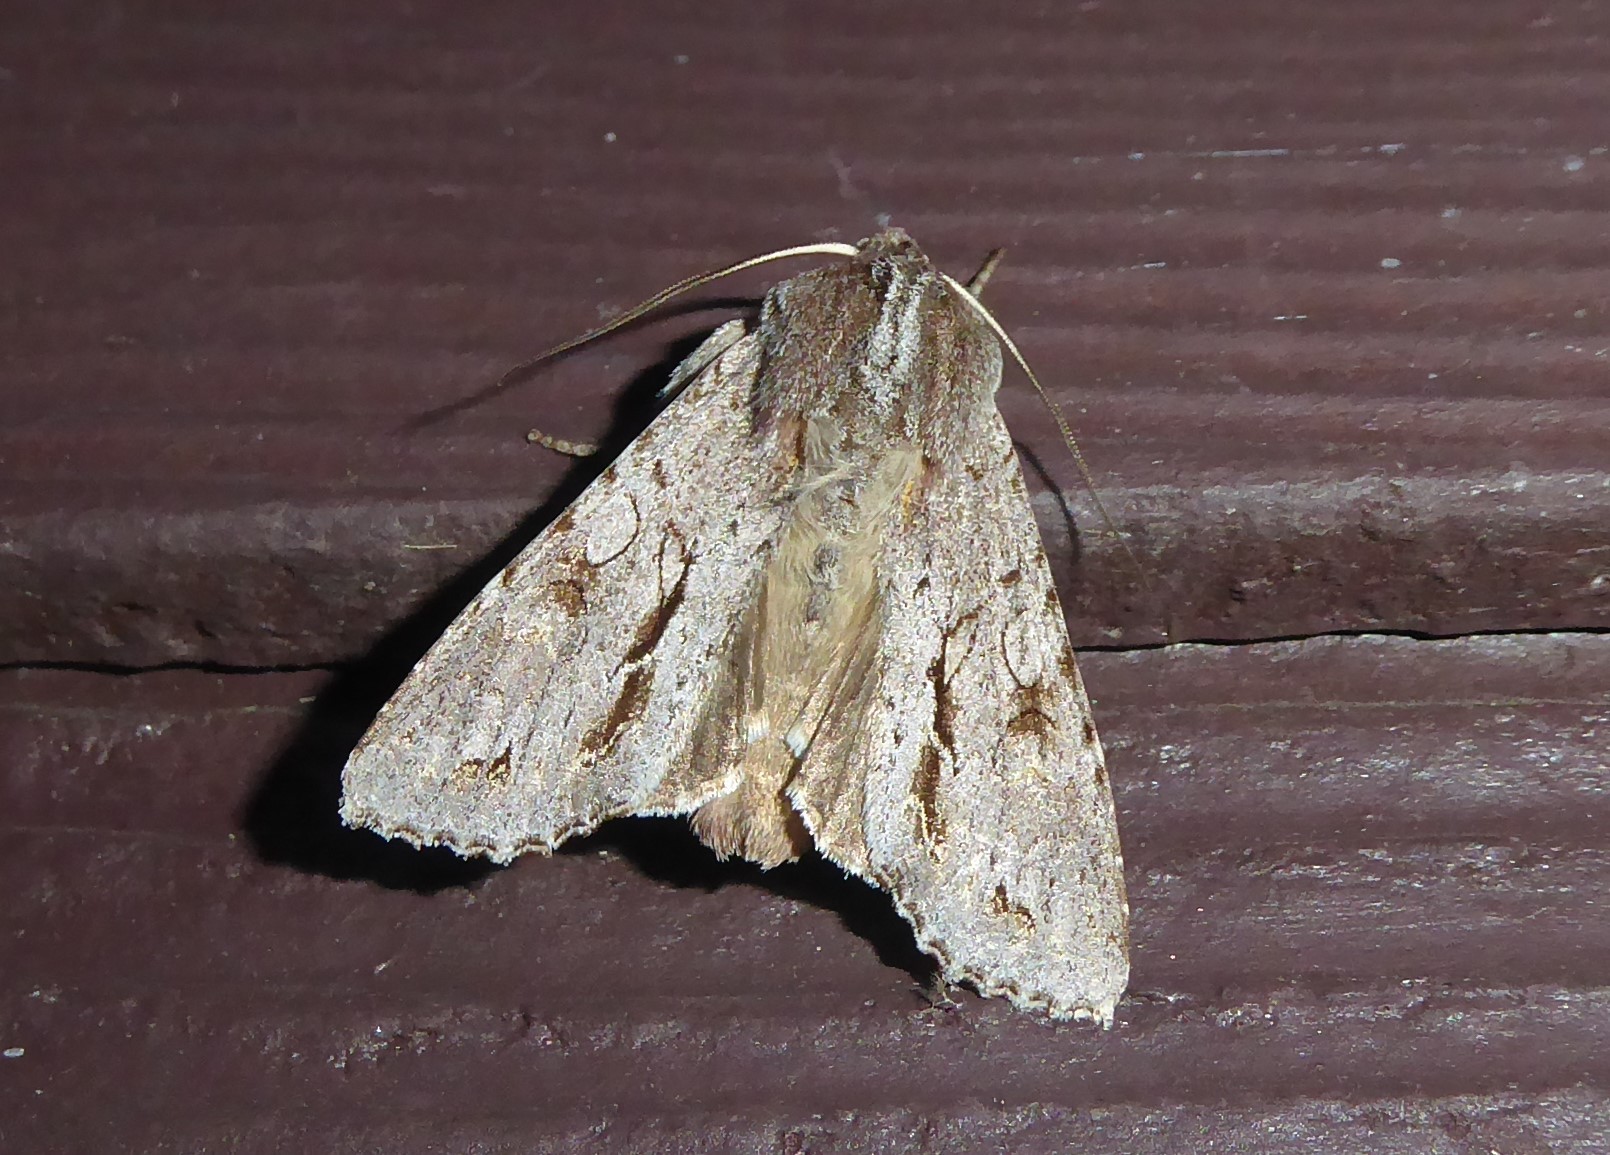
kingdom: Animalia
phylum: Arthropoda
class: Insecta
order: Lepidoptera
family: Noctuidae
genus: Ichneutica
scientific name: Ichneutica
